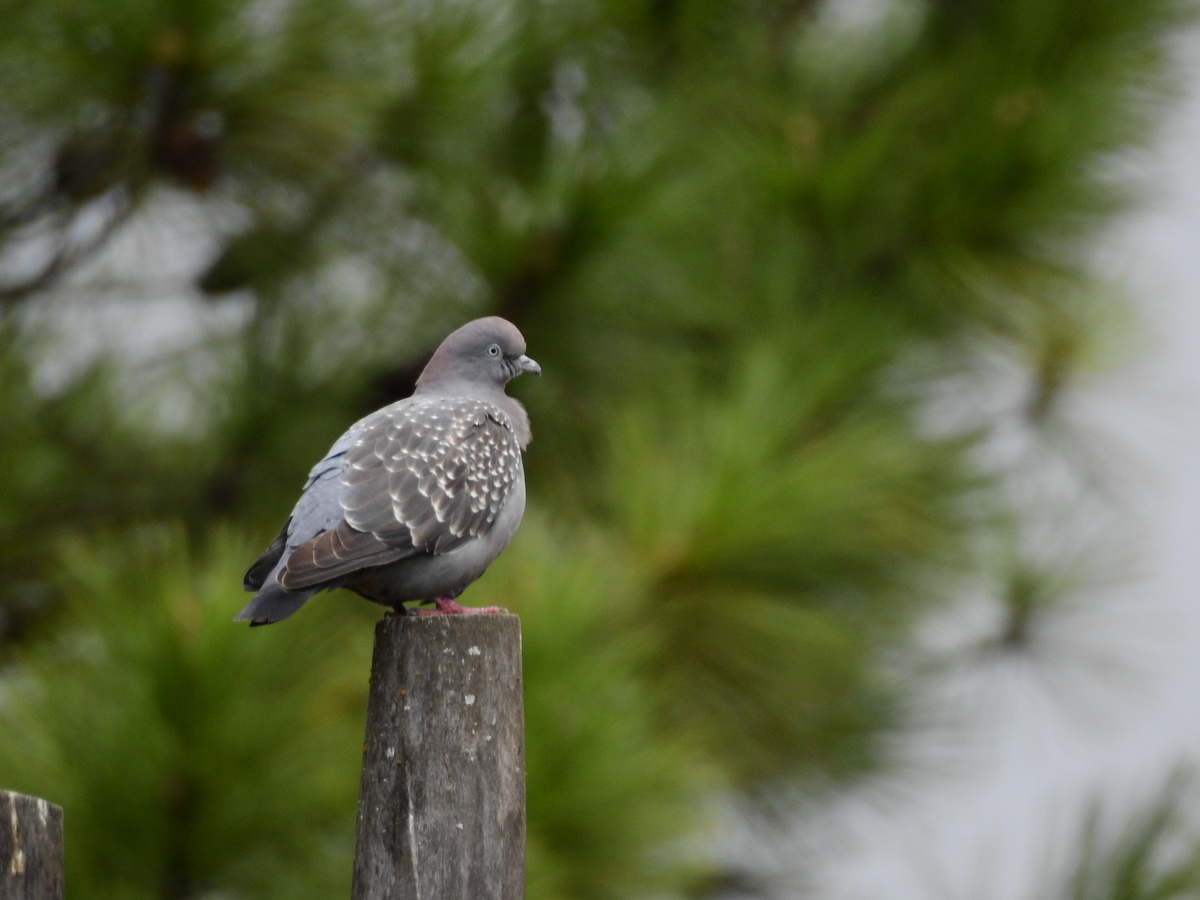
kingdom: Animalia
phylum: Chordata
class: Aves
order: Columbiformes
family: Columbidae
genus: Patagioenas
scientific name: Patagioenas maculosa
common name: Spot-winged pigeon
